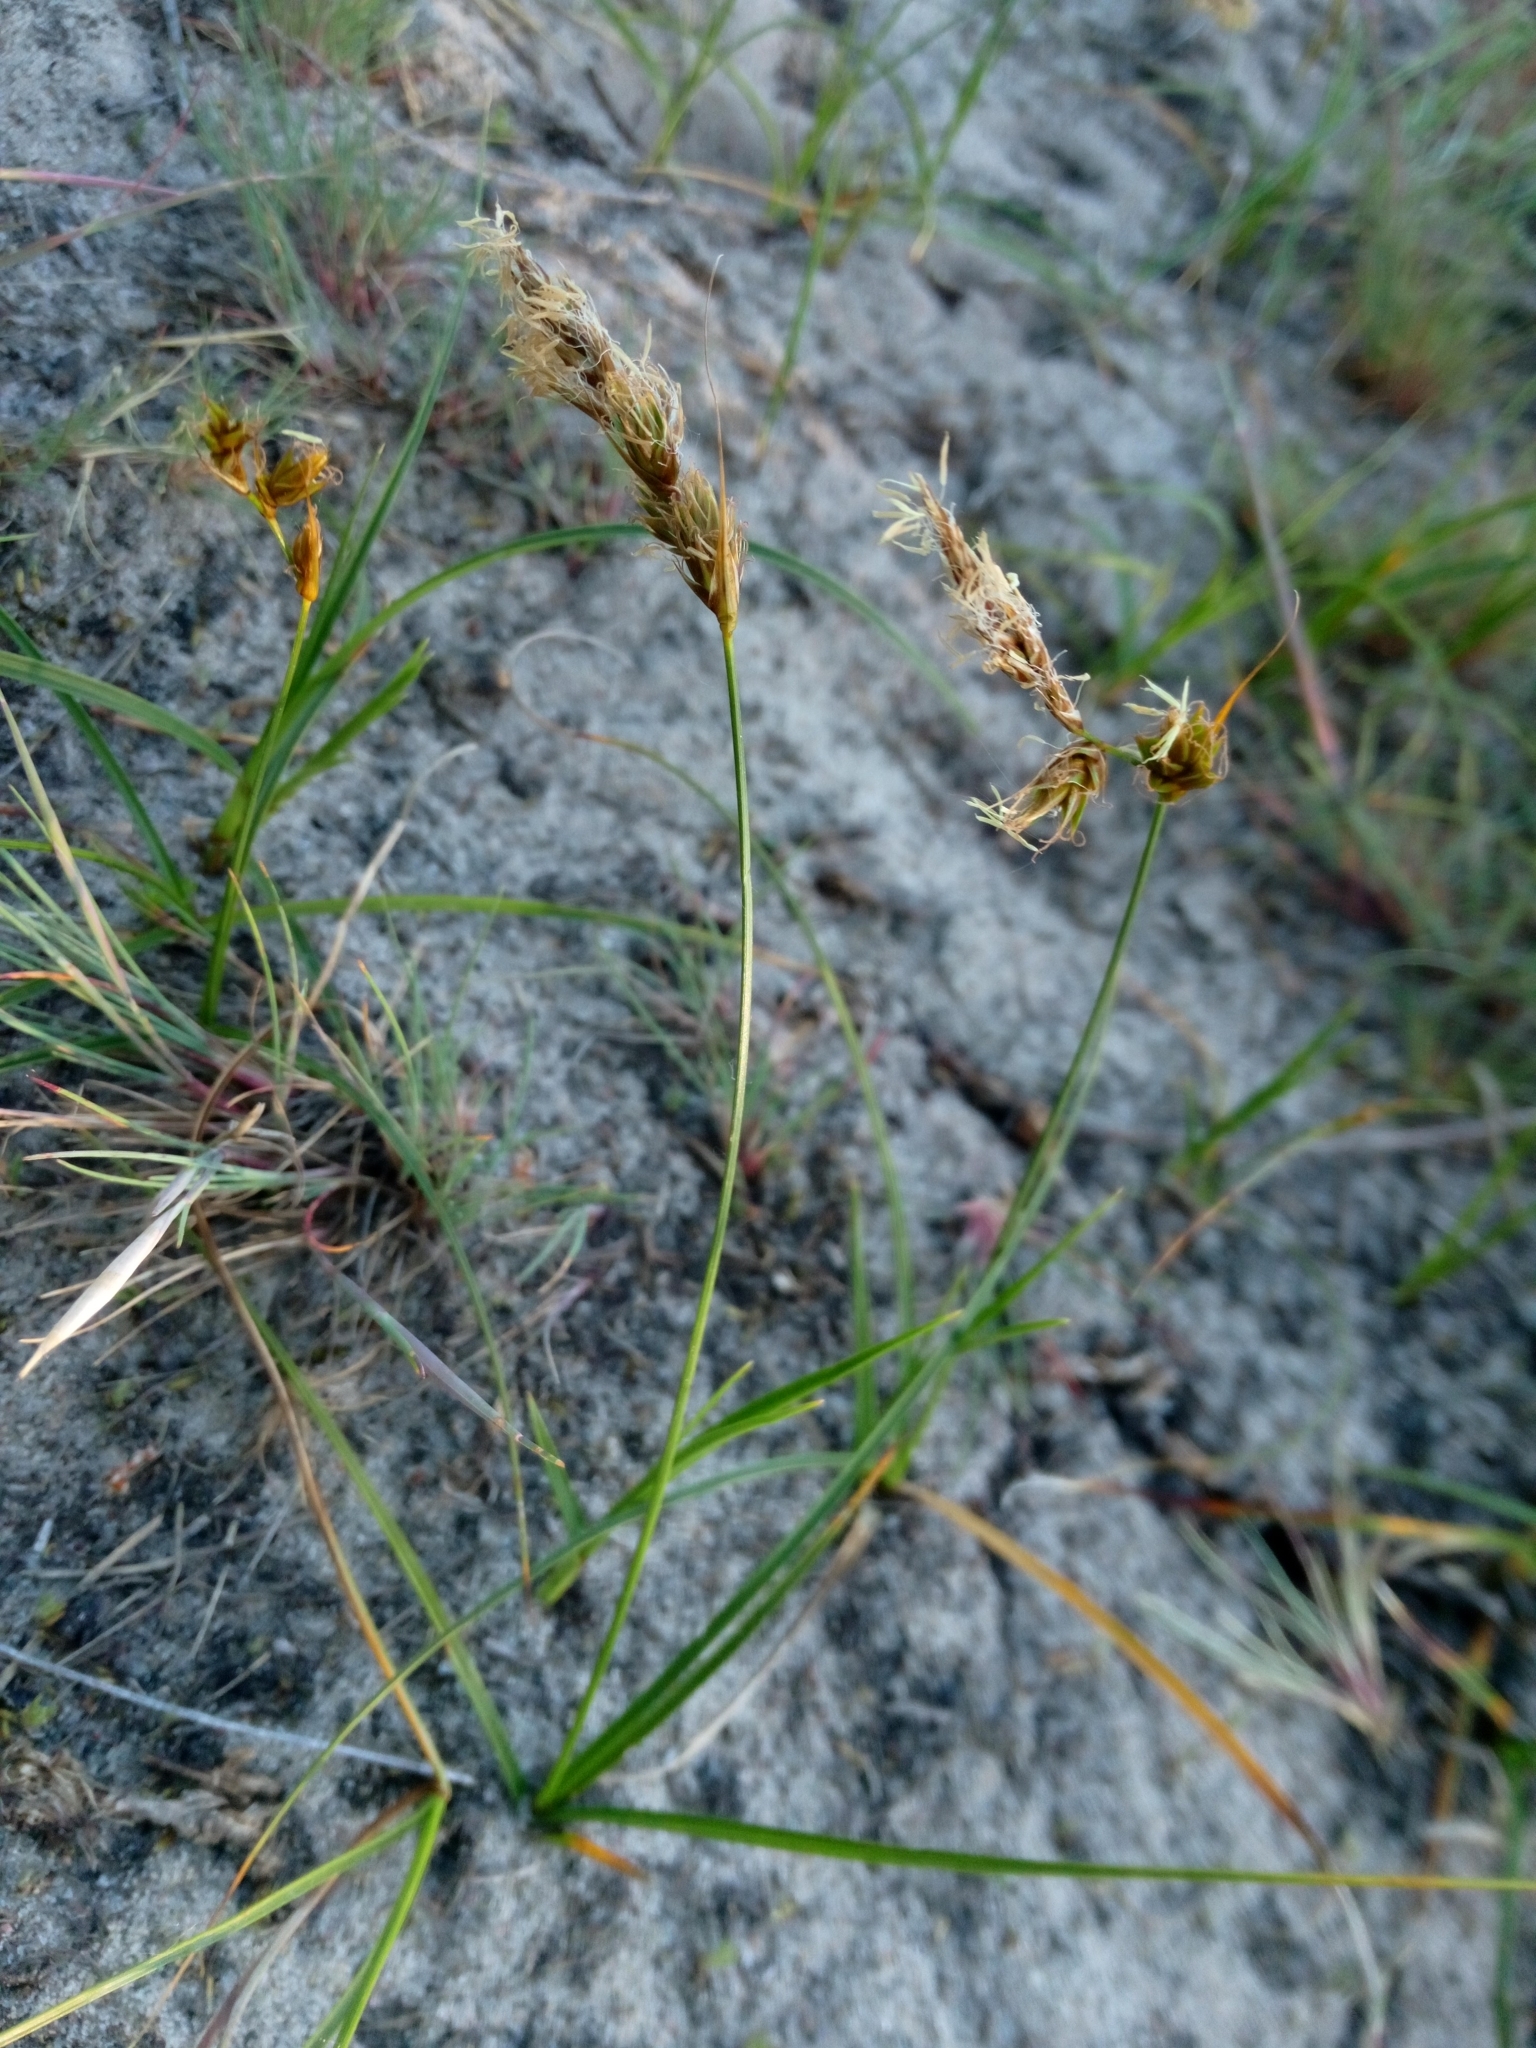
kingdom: Plantae
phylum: Tracheophyta
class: Liliopsida
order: Poales
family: Cyperaceae
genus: Carex
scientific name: Carex arenaria
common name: Sand sedge
